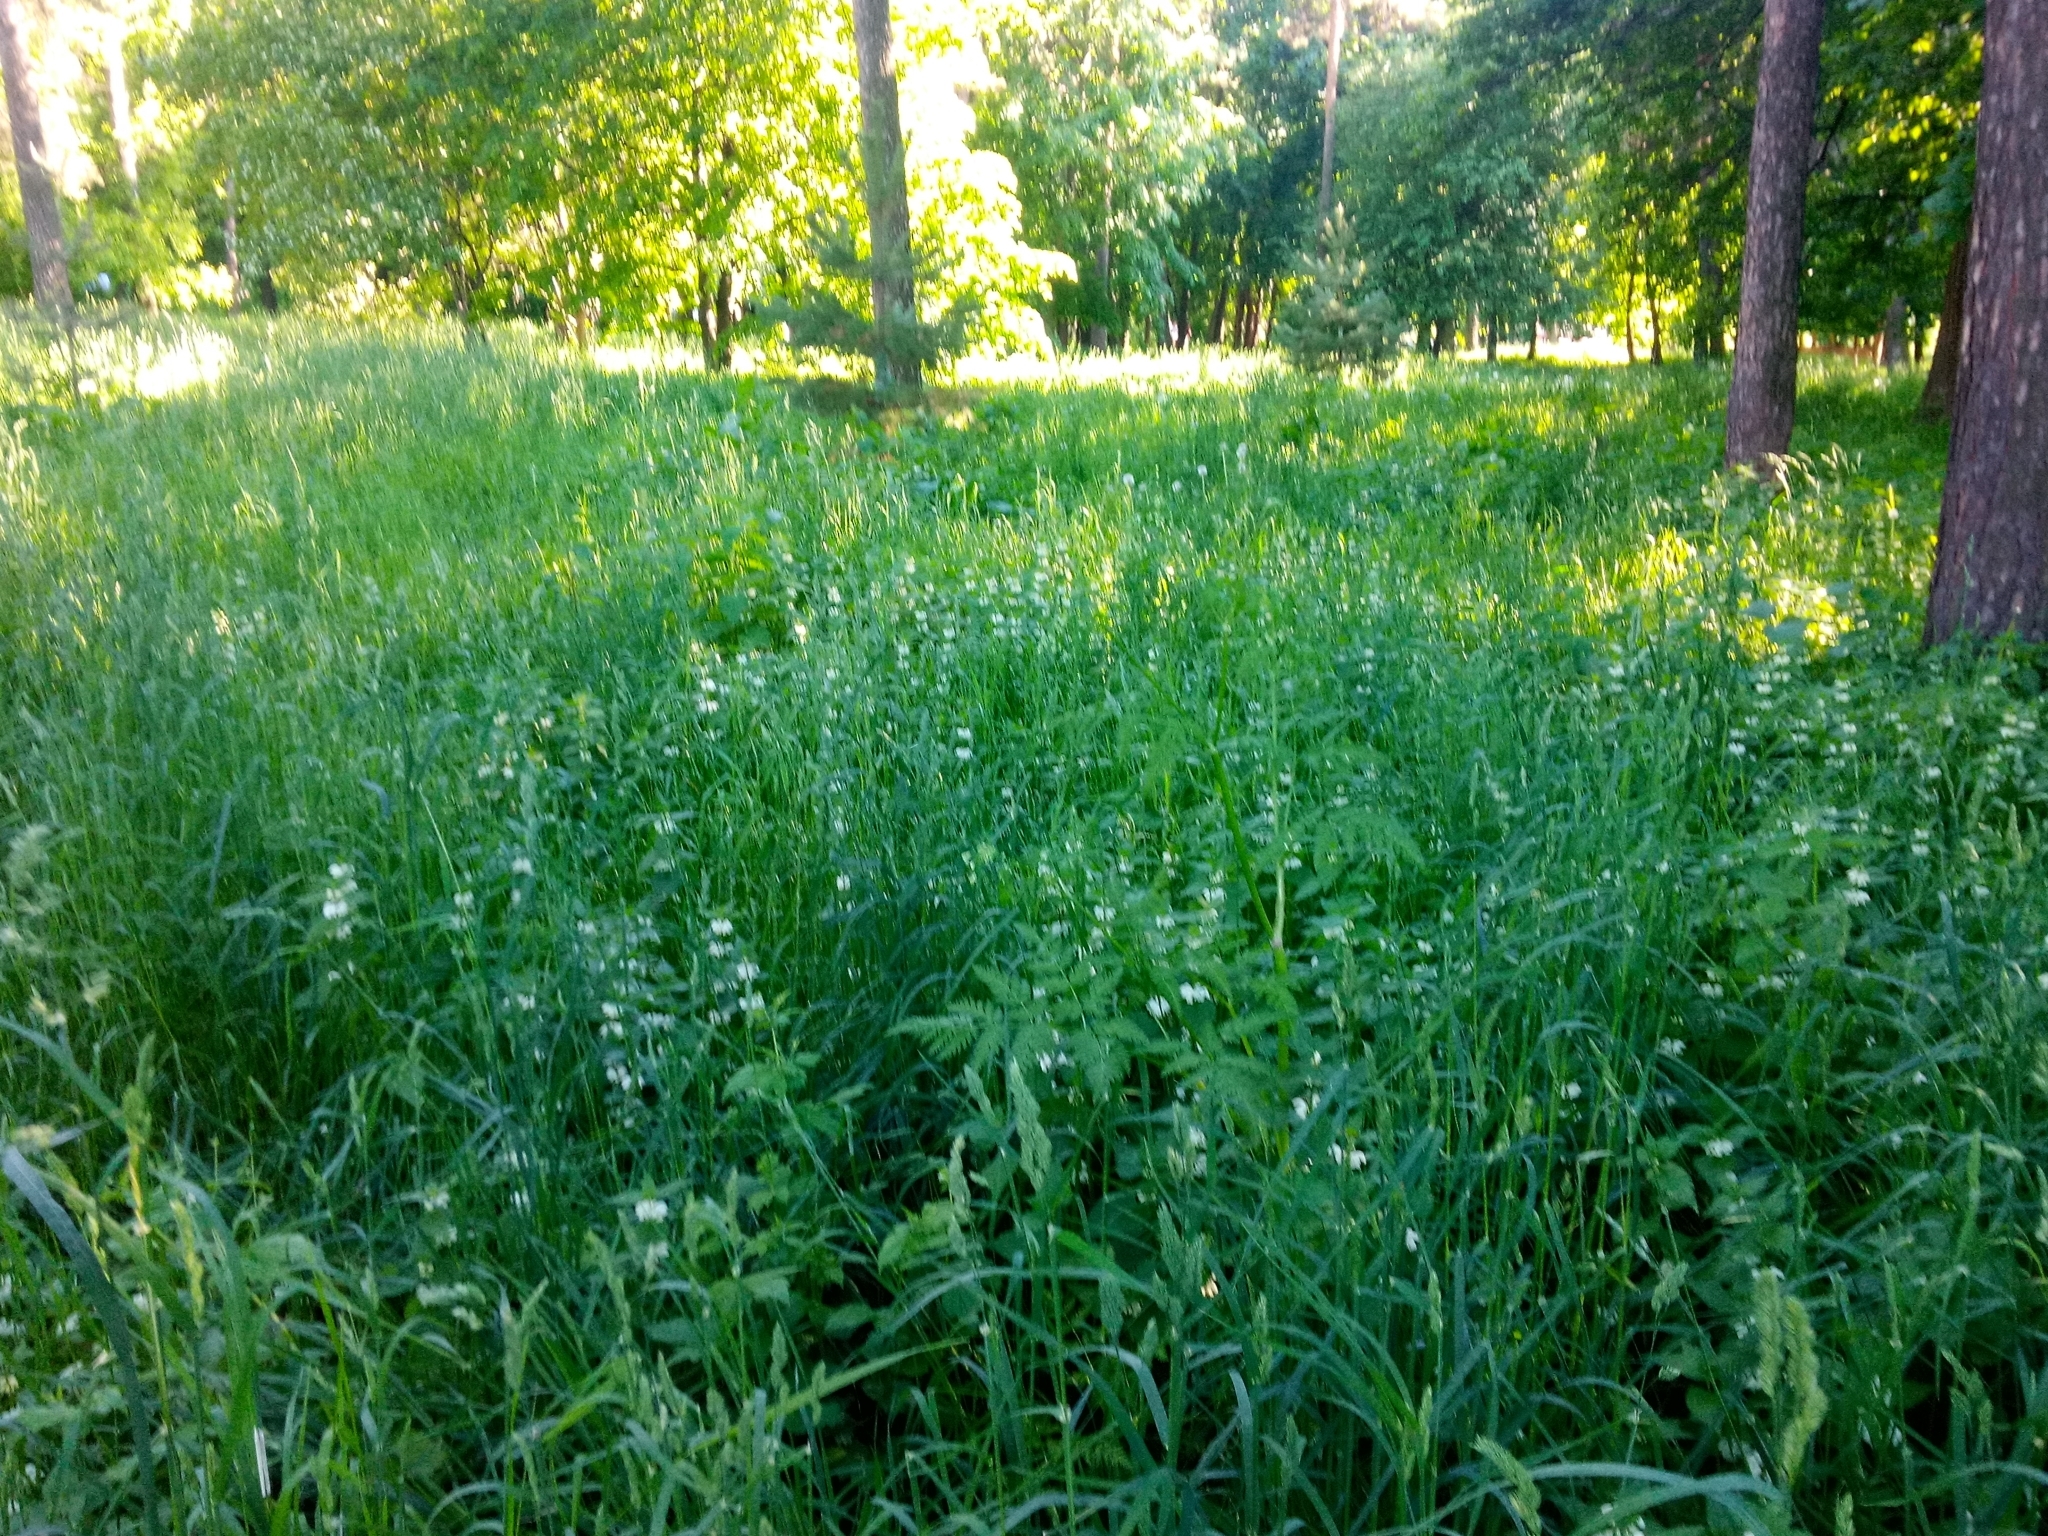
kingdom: Plantae
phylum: Tracheophyta
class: Magnoliopsida
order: Lamiales
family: Lamiaceae
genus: Lamium
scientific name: Lamium album
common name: White dead-nettle
